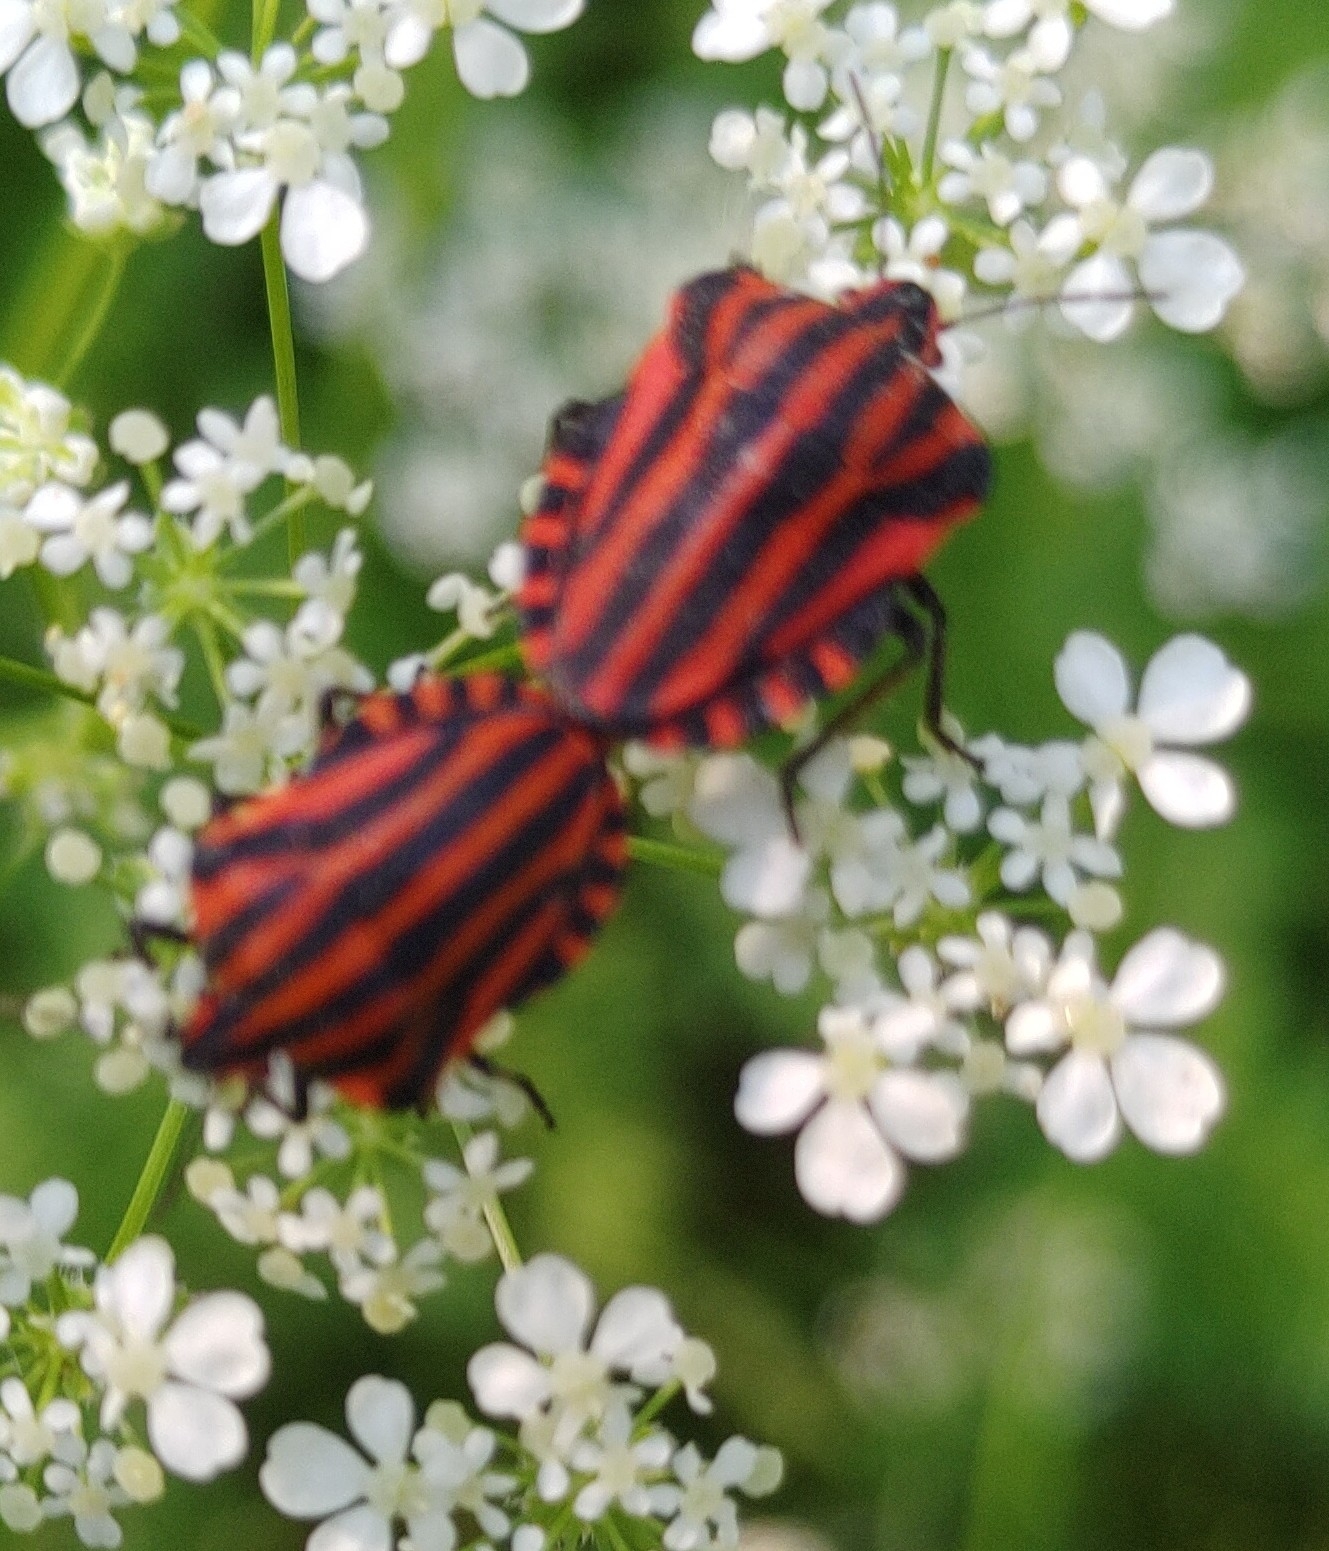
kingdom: Animalia
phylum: Arthropoda
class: Insecta
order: Hemiptera
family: Pentatomidae
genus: Graphosoma
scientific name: Graphosoma italicum
